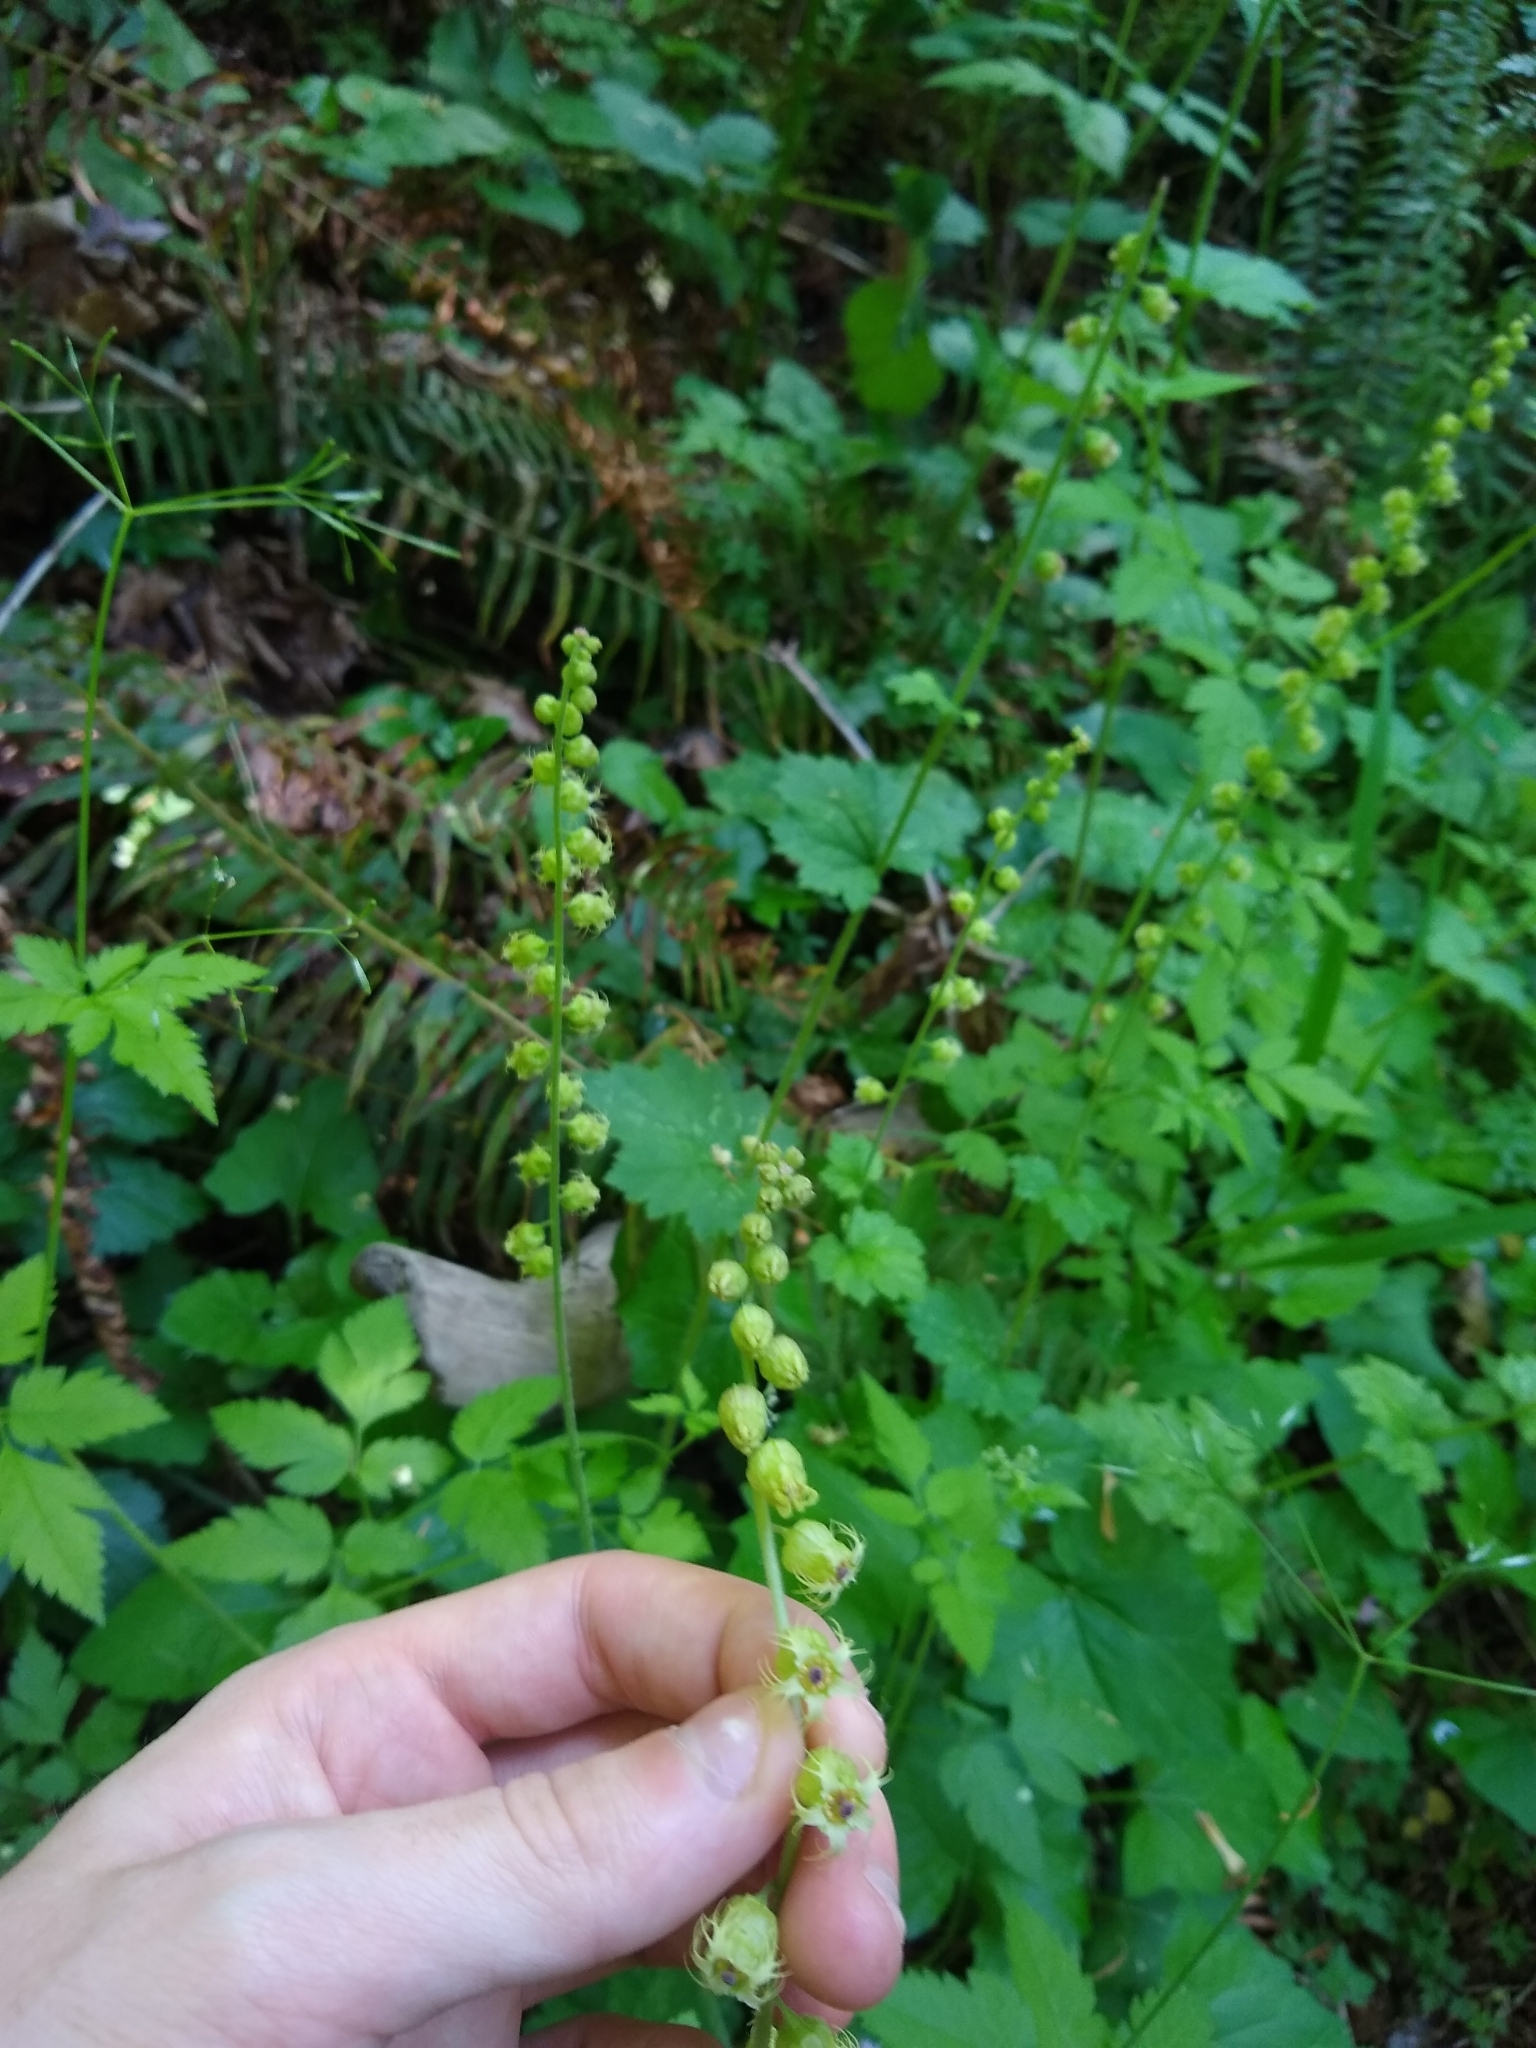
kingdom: Plantae
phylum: Tracheophyta
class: Magnoliopsida
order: Saxifragales
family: Saxifragaceae
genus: Tellima
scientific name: Tellima grandiflora
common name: Fringecups
